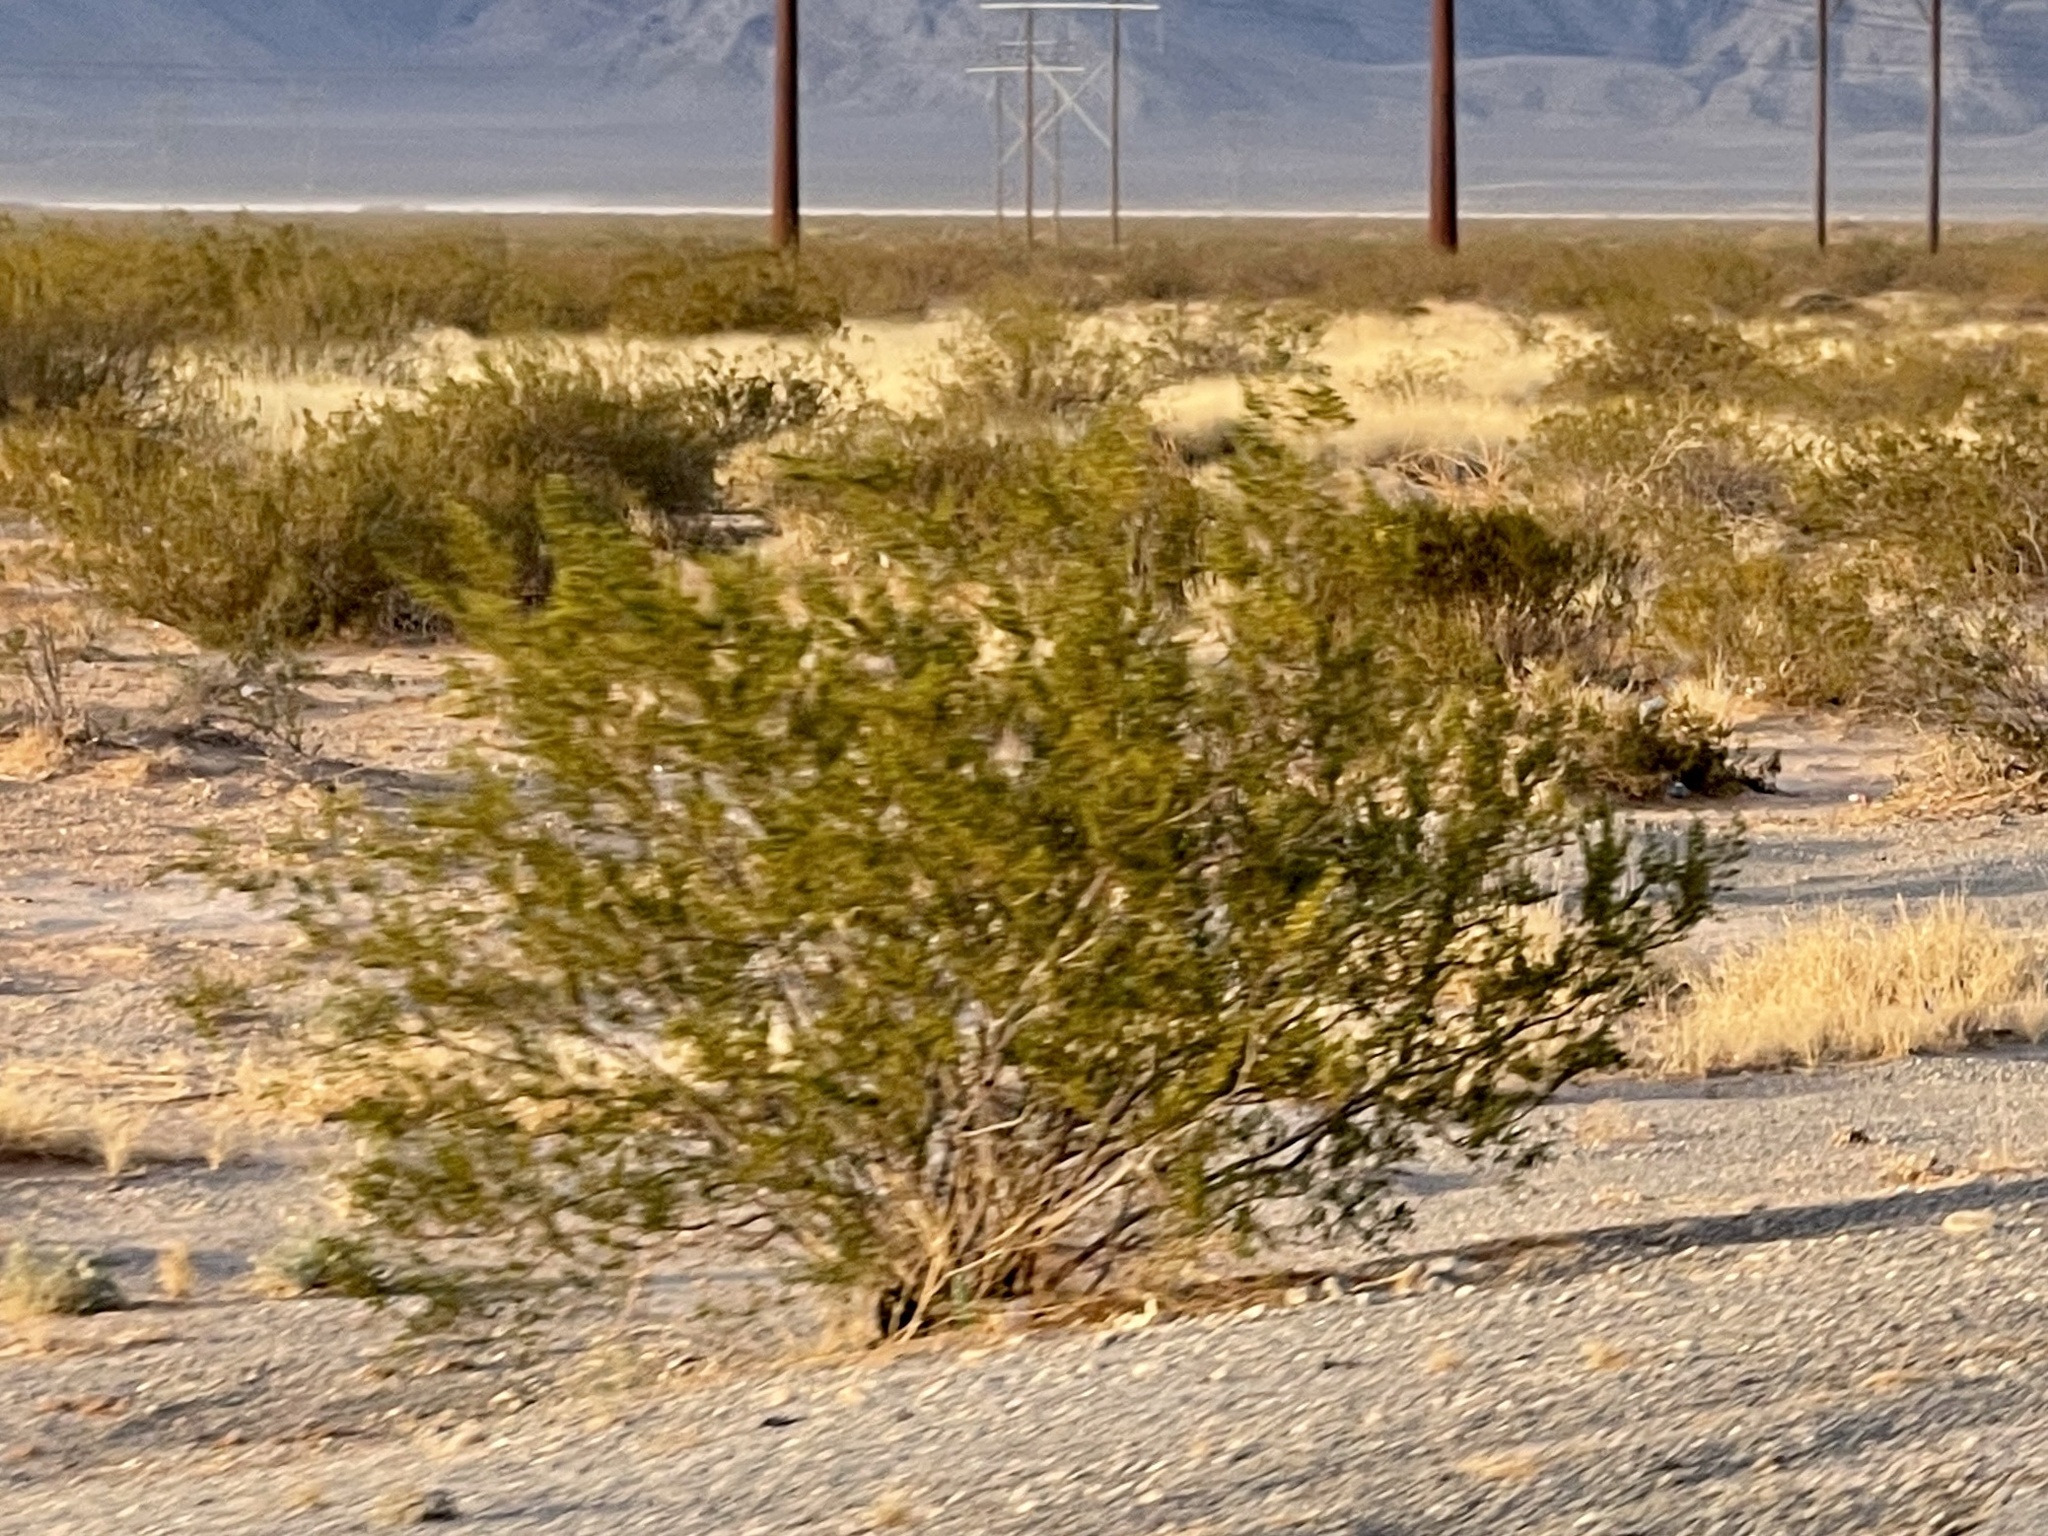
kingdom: Plantae
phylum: Tracheophyta
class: Magnoliopsida
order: Zygophyllales
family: Zygophyllaceae
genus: Larrea
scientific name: Larrea tridentata
